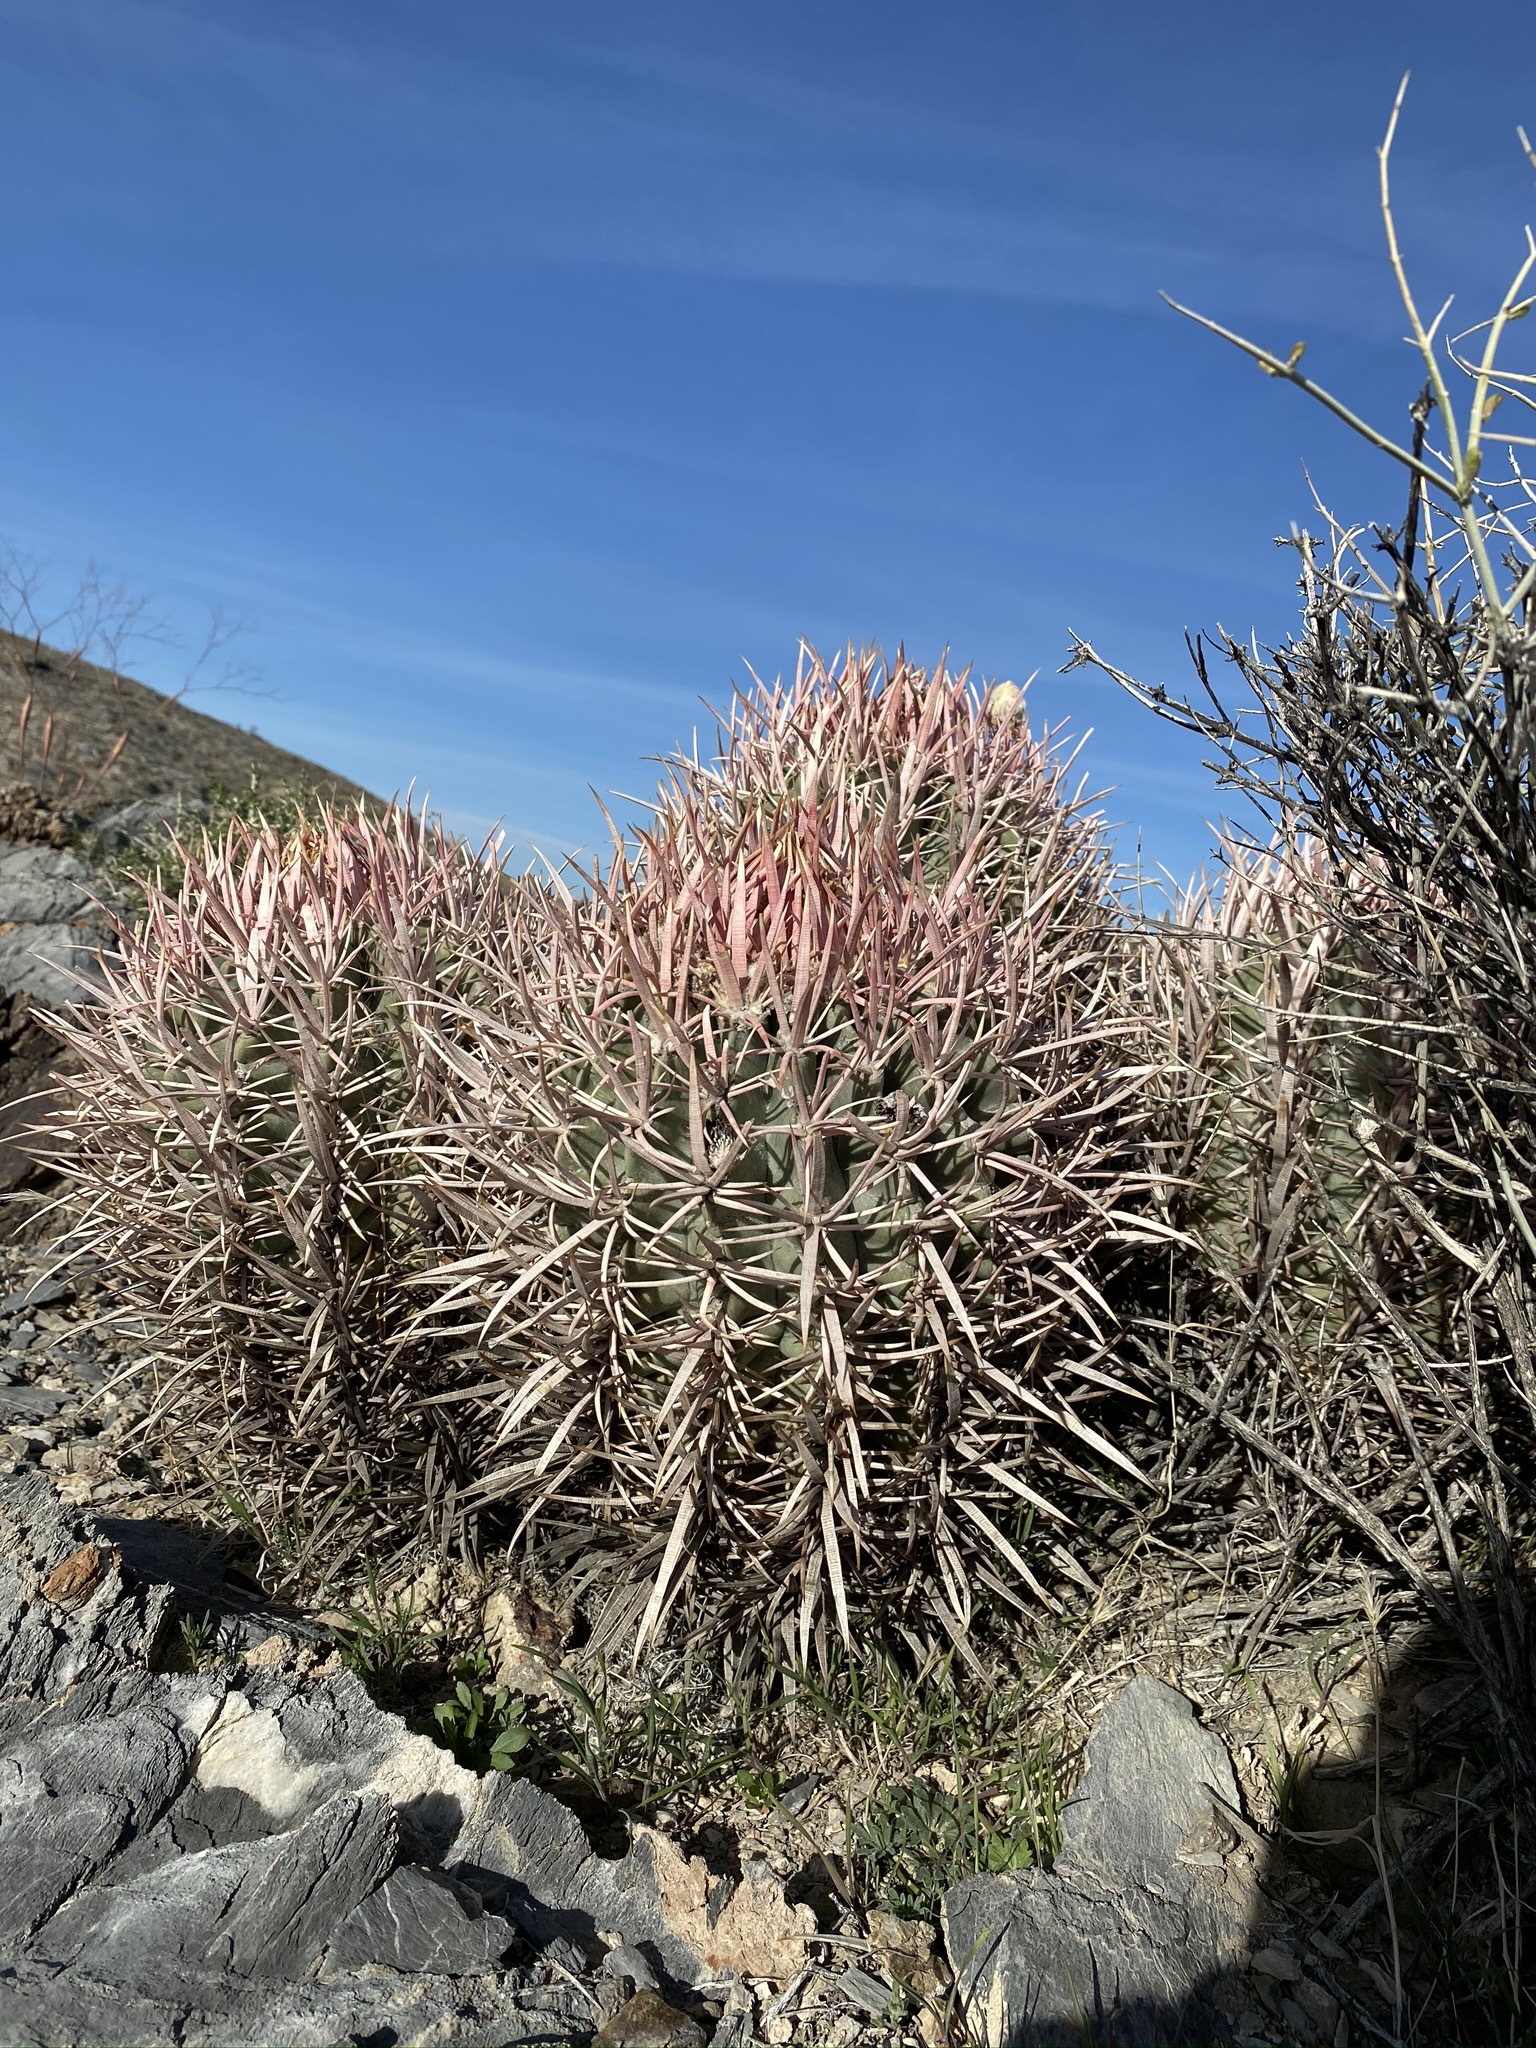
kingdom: Plantae
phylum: Tracheophyta
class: Magnoliopsida
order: Caryophyllales
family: Cactaceae
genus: Echinocactus
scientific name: Echinocactus polycephalus
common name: Cottontop cactus
